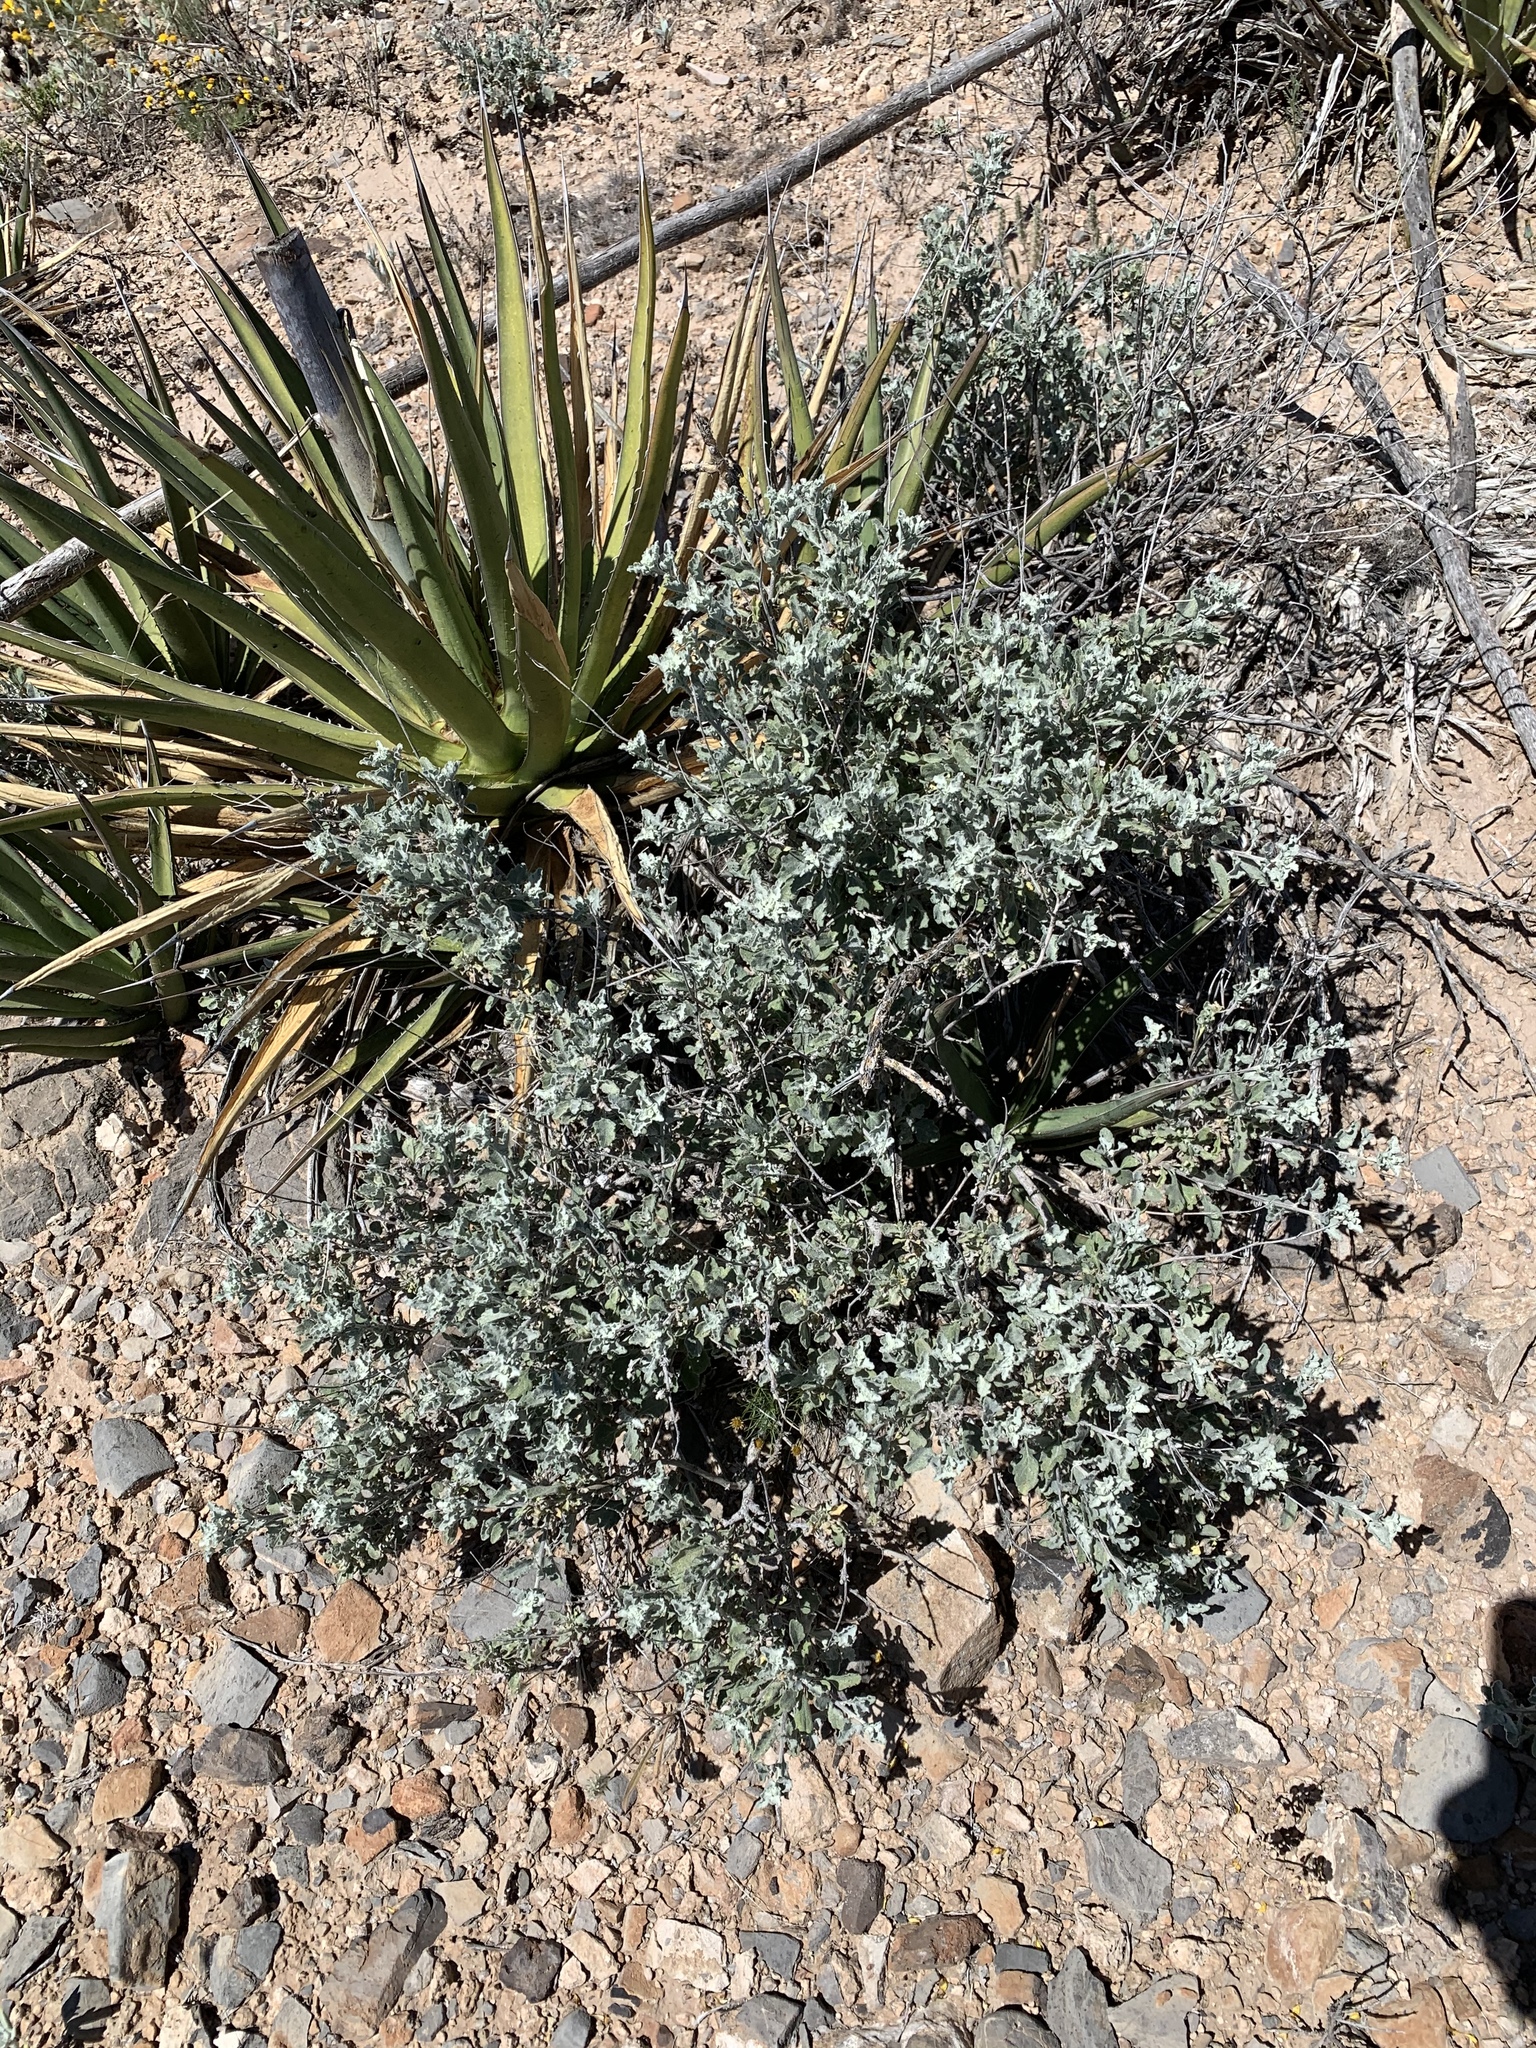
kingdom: Plantae
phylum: Tracheophyta
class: Magnoliopsida
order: Asterales
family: Asteraceae
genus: Parthenium
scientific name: Parthenium incanum
